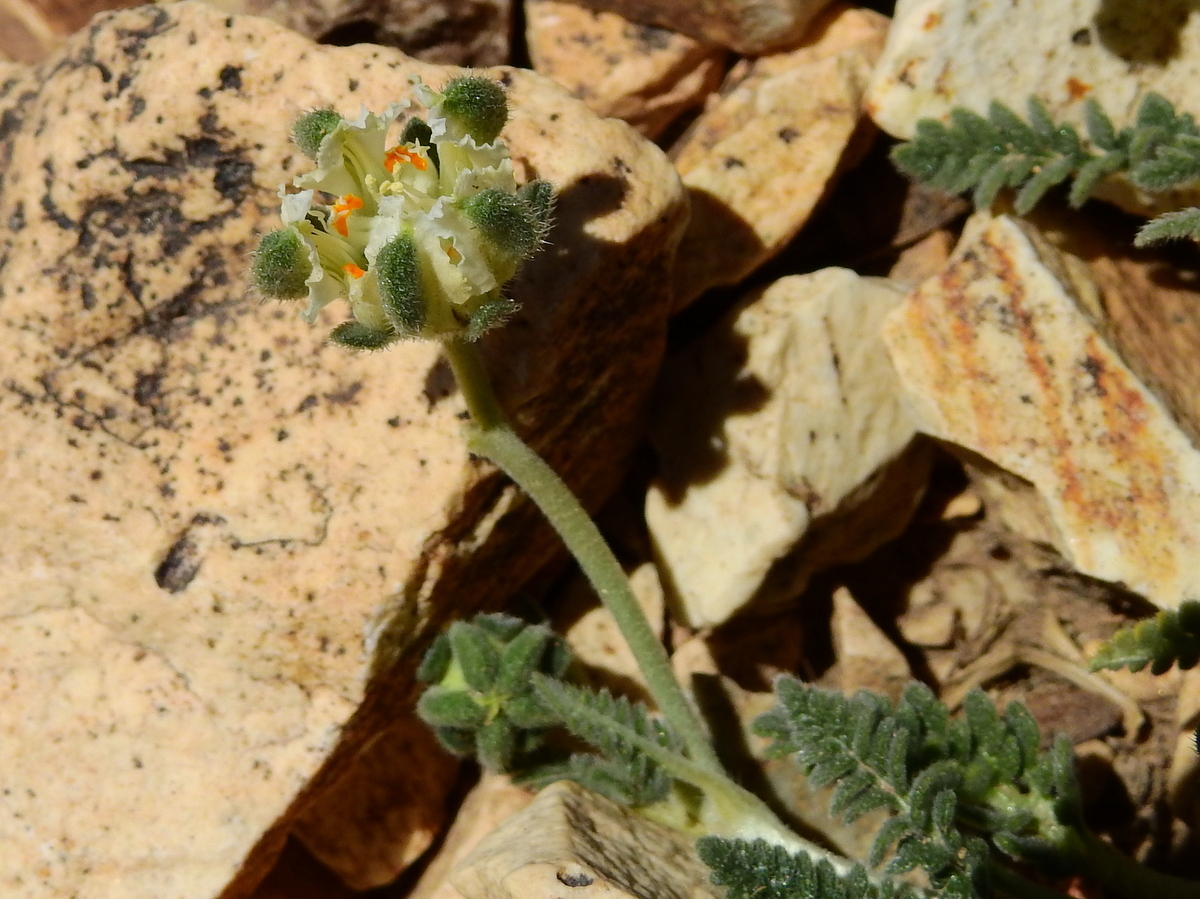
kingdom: Plantae
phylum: Tracheophyta
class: Magnoliopsida
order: Cornales
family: Loasaceae
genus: Pinnasa
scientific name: Pinnasa kurtzii
